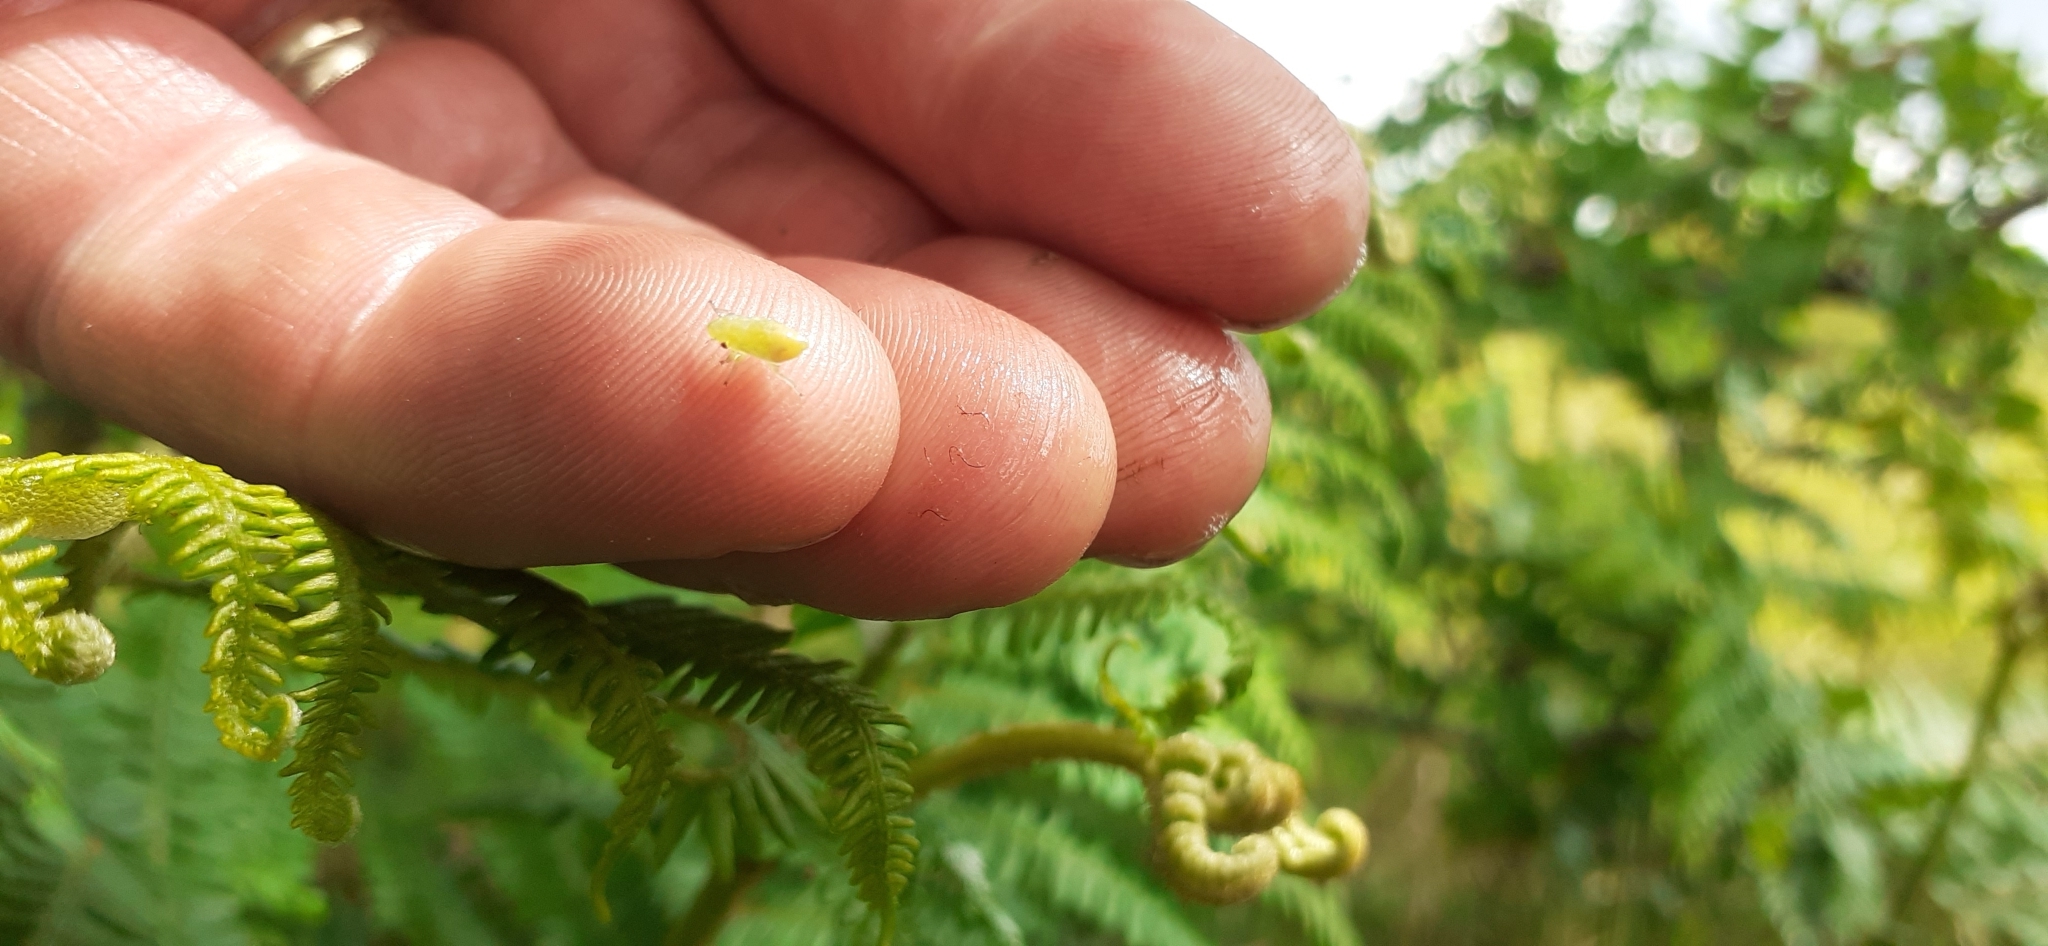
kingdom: Animalia
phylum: Arthropoda
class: Insecta
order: Hemiptera
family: Aphrophoridae
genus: Philaenus
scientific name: Philaenus spumarius
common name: Meadow spittlebug
